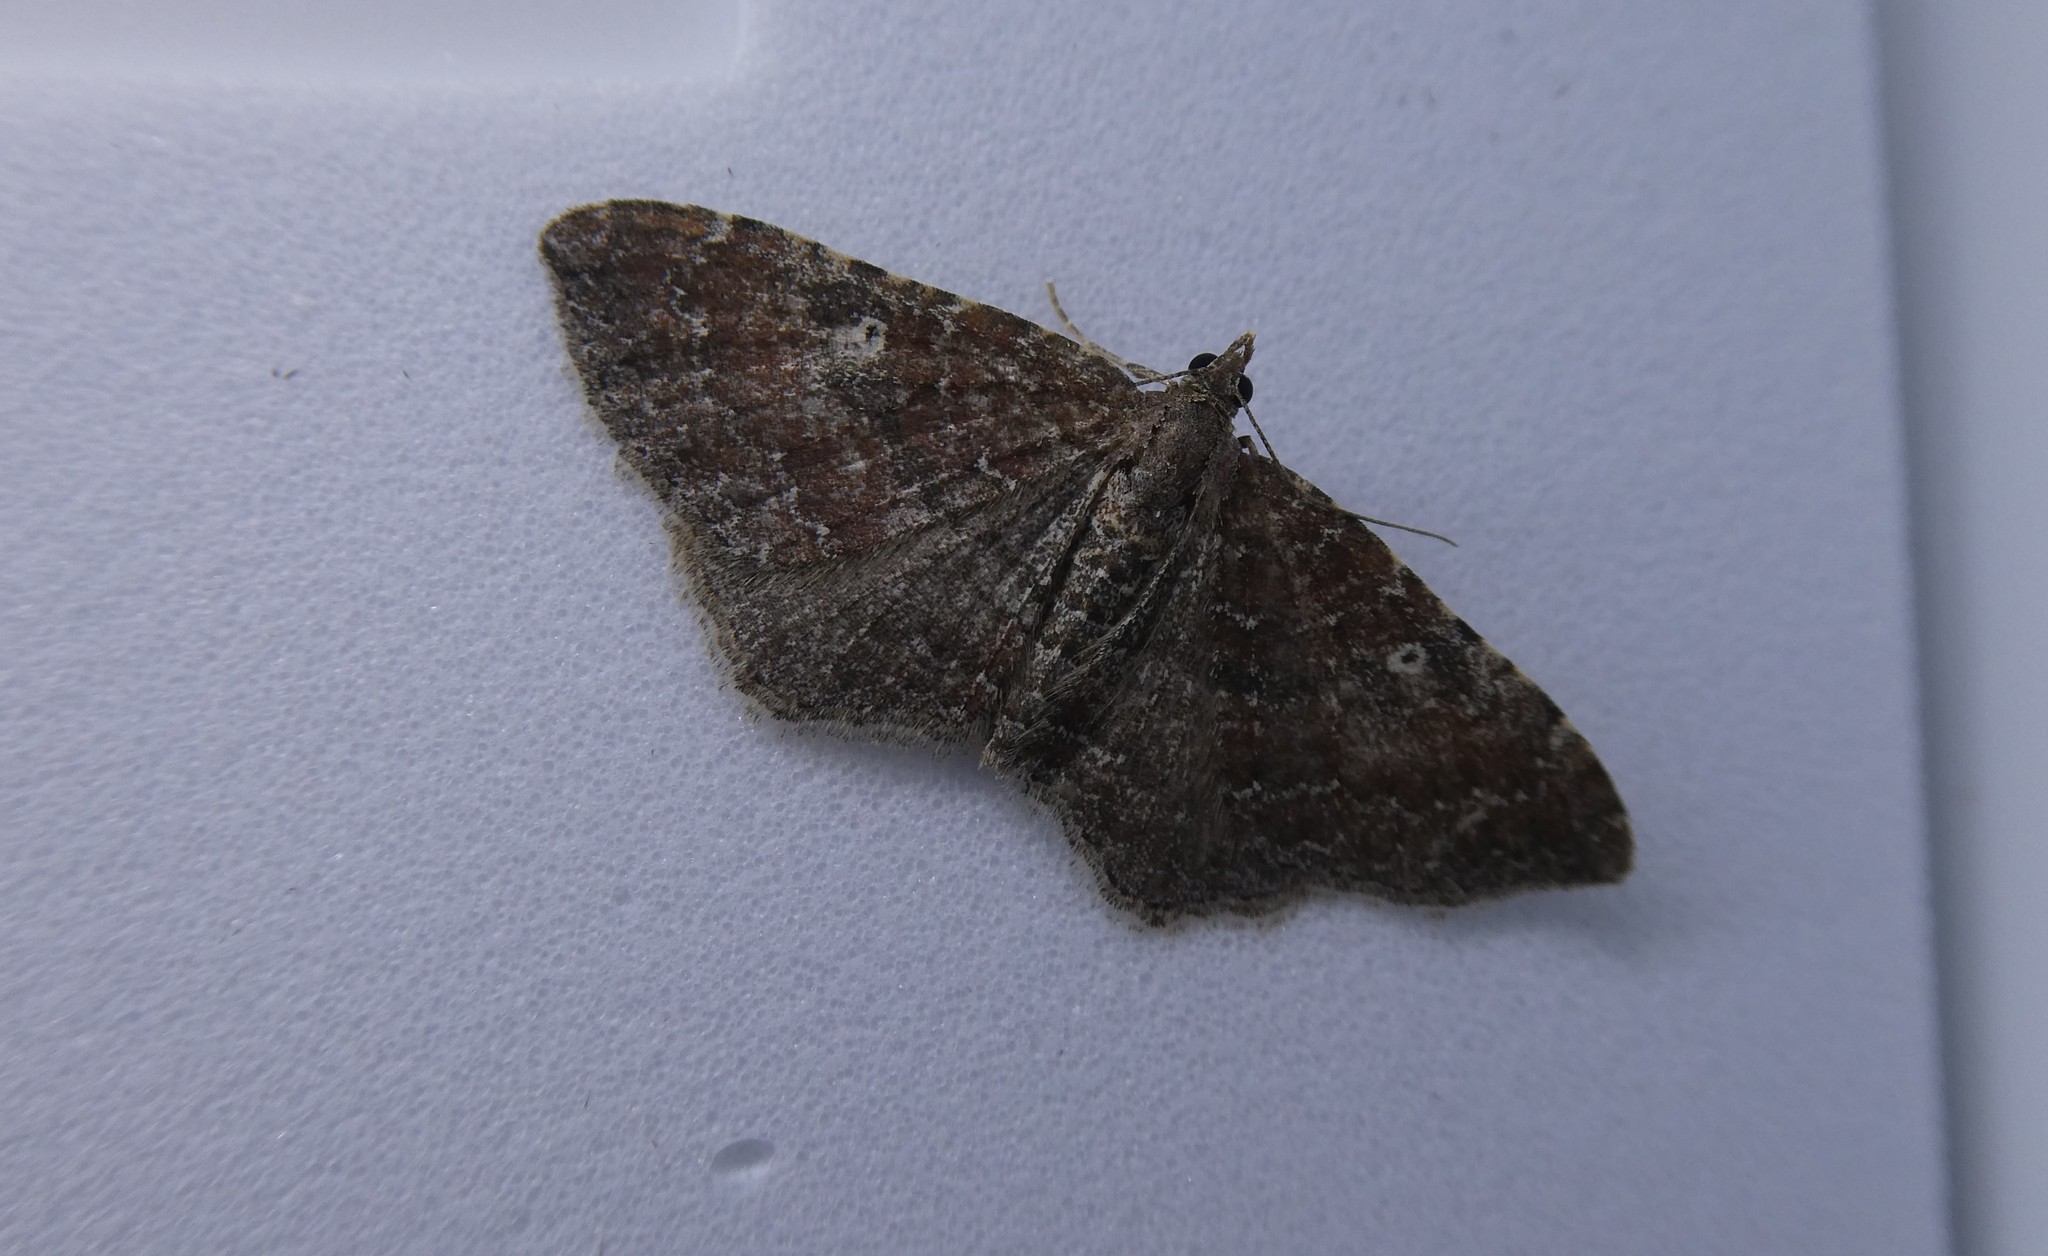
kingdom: Animalia
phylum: Arthropoda
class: Insecta
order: Lepidoptera
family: Geometridae
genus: Orthonama
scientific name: Orthonama obstipata
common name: The gem
